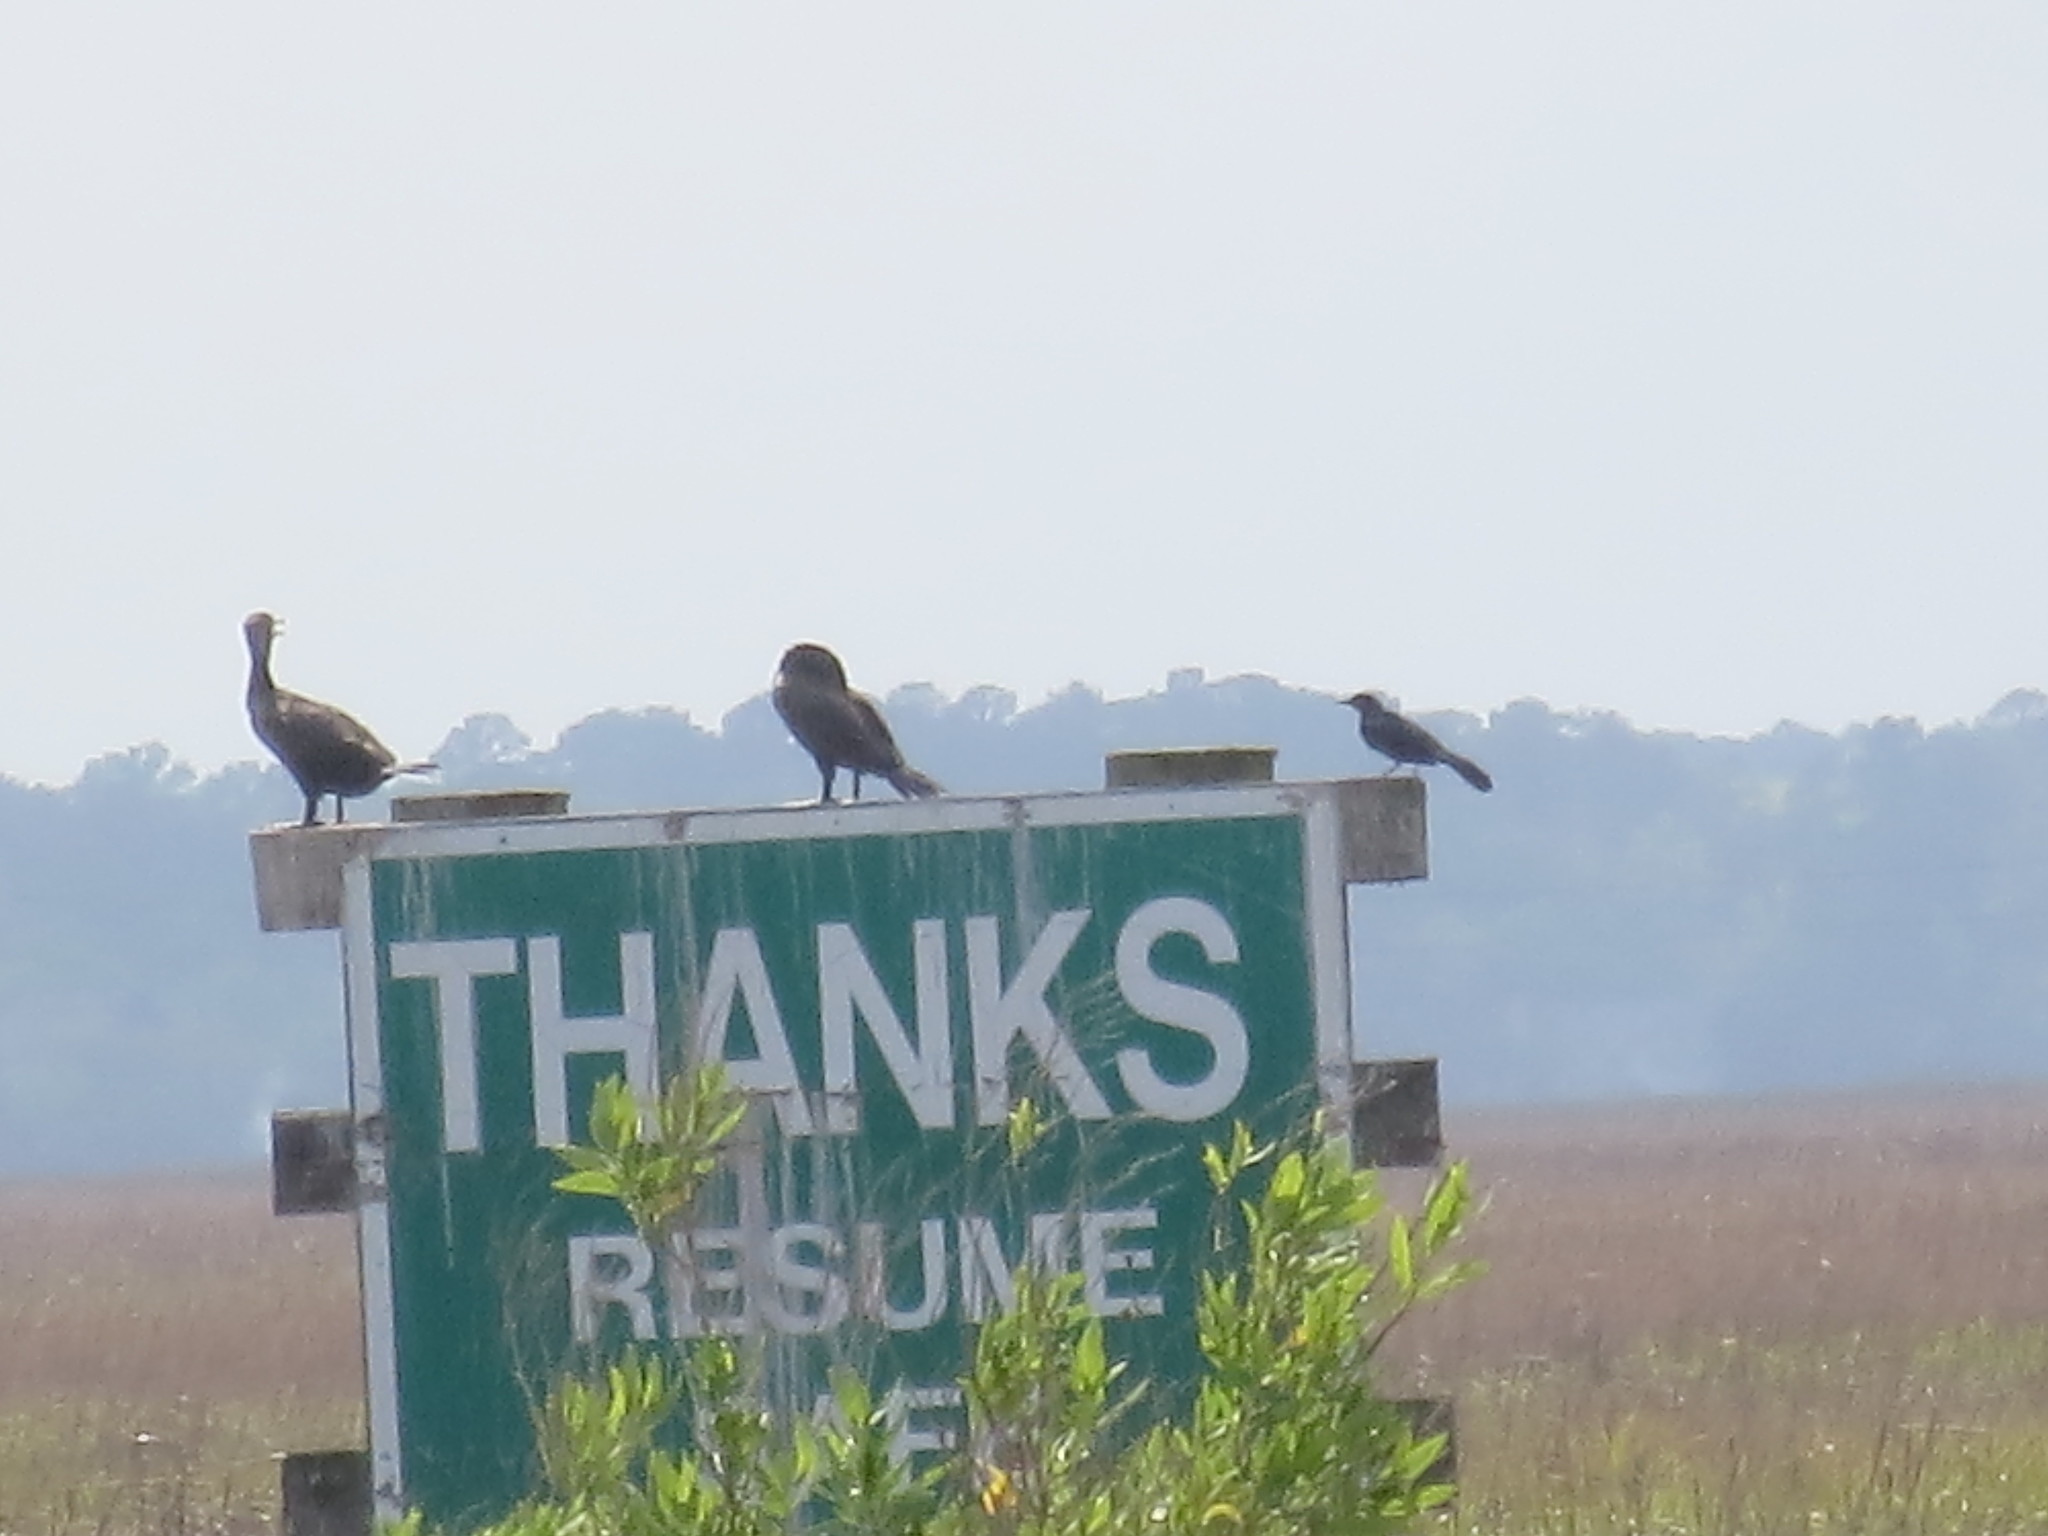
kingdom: Animalia
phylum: Chordata
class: Aves
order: Suliformes
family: Phalacrocoracidae
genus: Phalacrocorax
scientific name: Phalacrocorax auritus
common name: Double-crested cormorant
